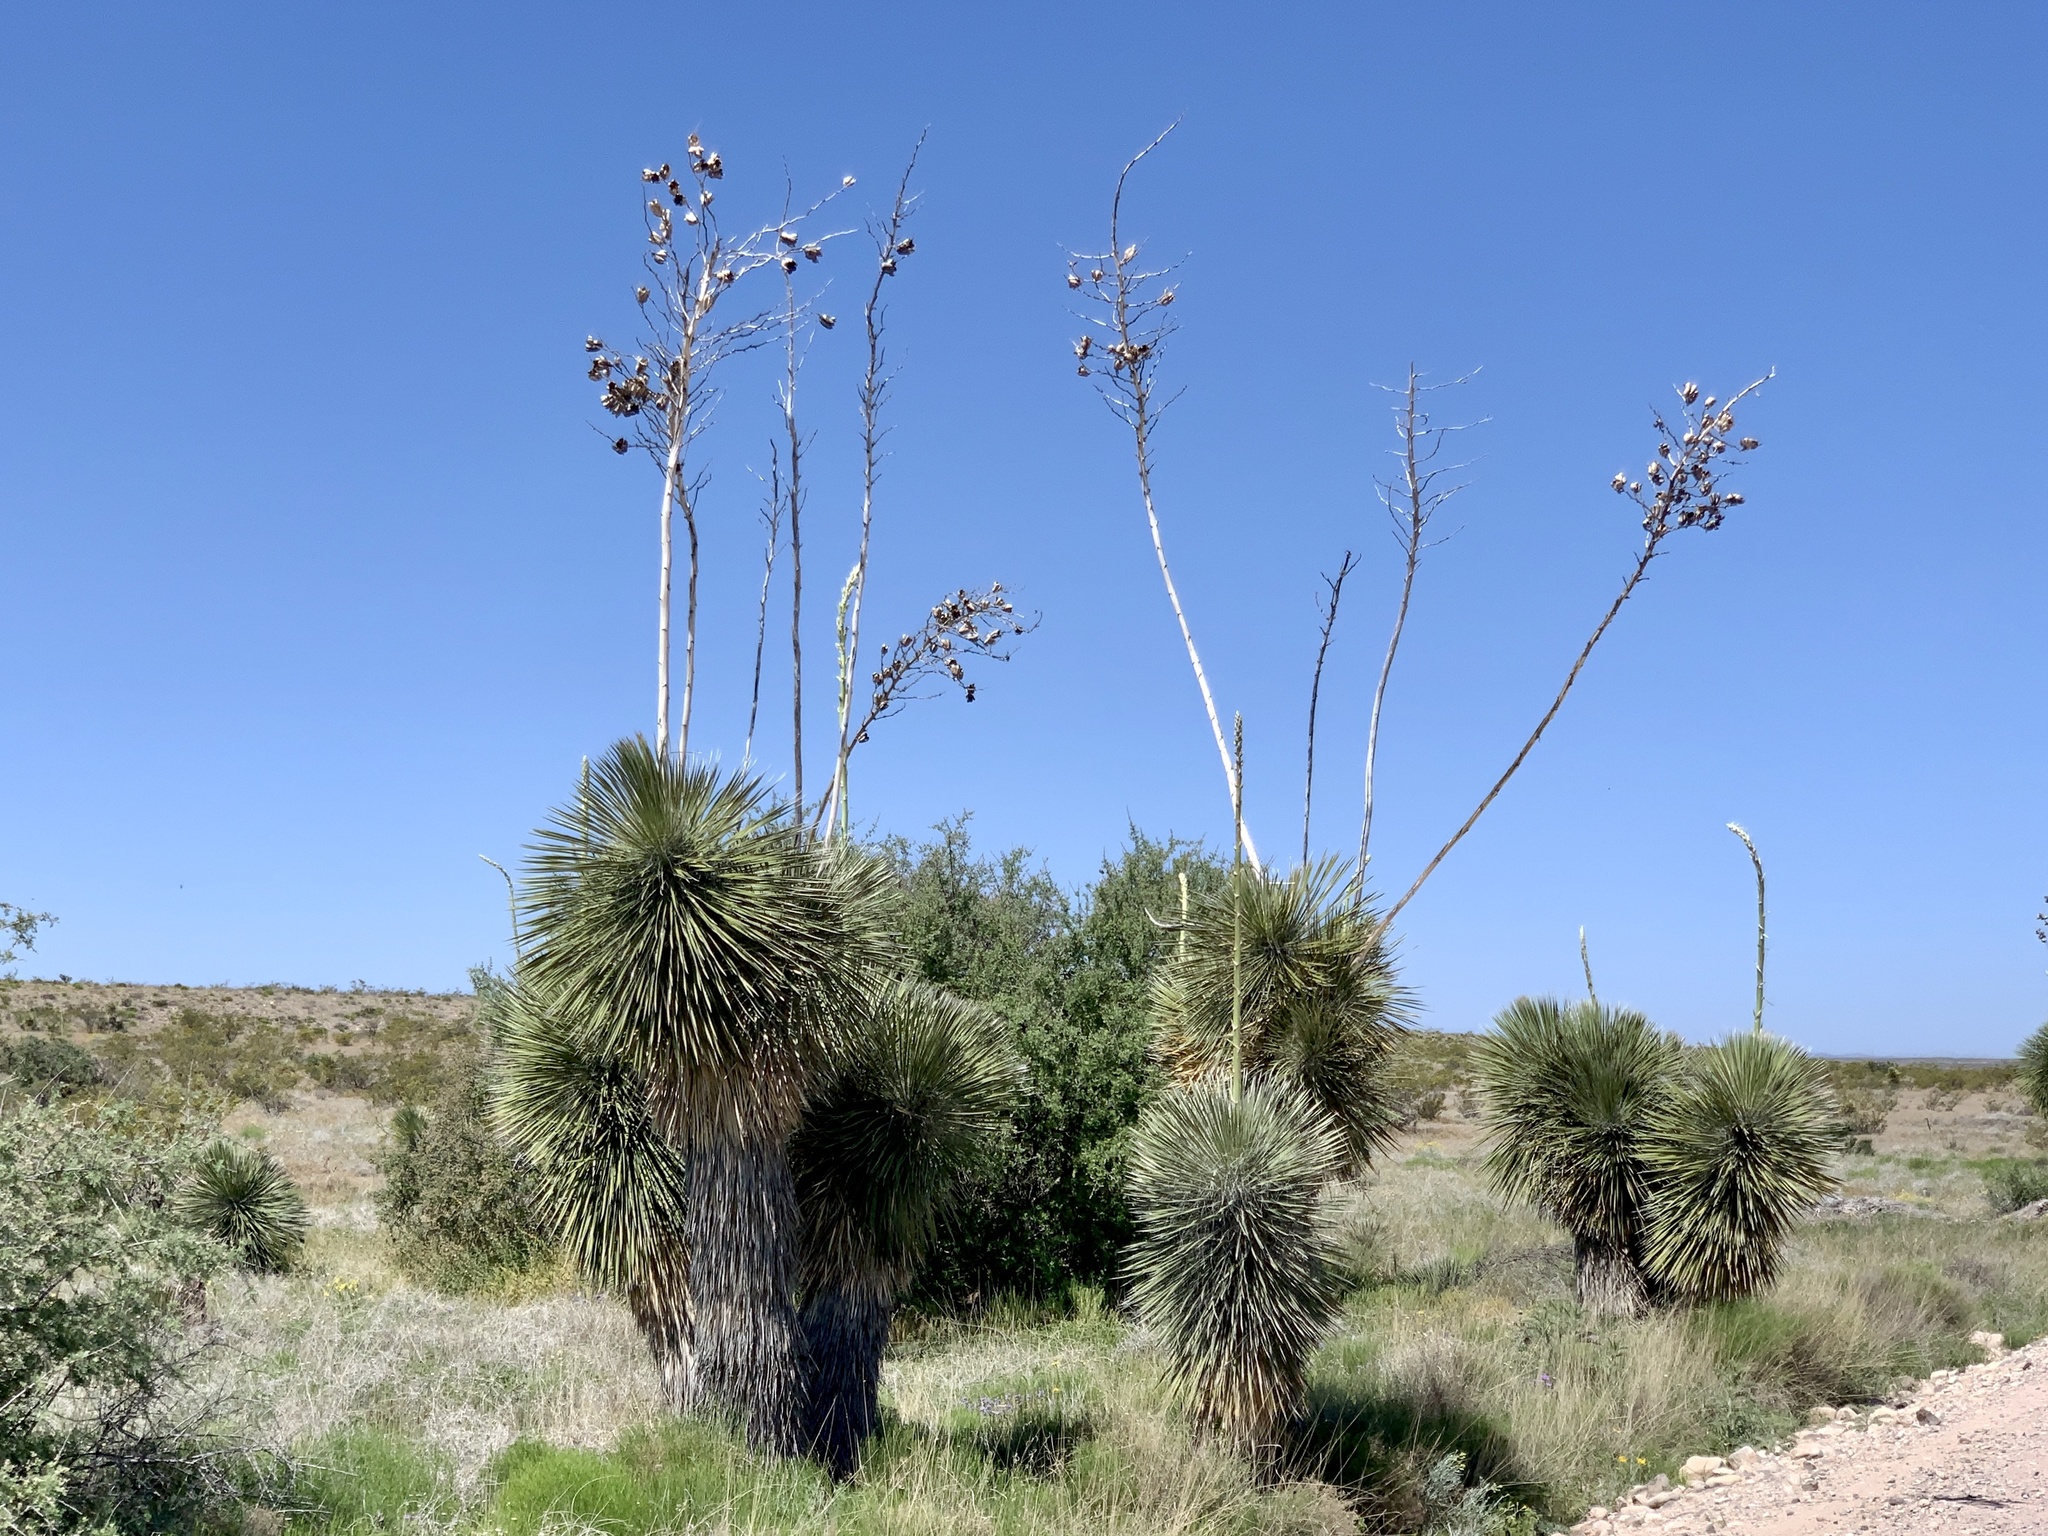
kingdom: Plantae
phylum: Tracheophyta
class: Liliopsida
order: Asparagales
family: Asparagaceae
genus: Yucca
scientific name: Yucca elata
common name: Palmella
